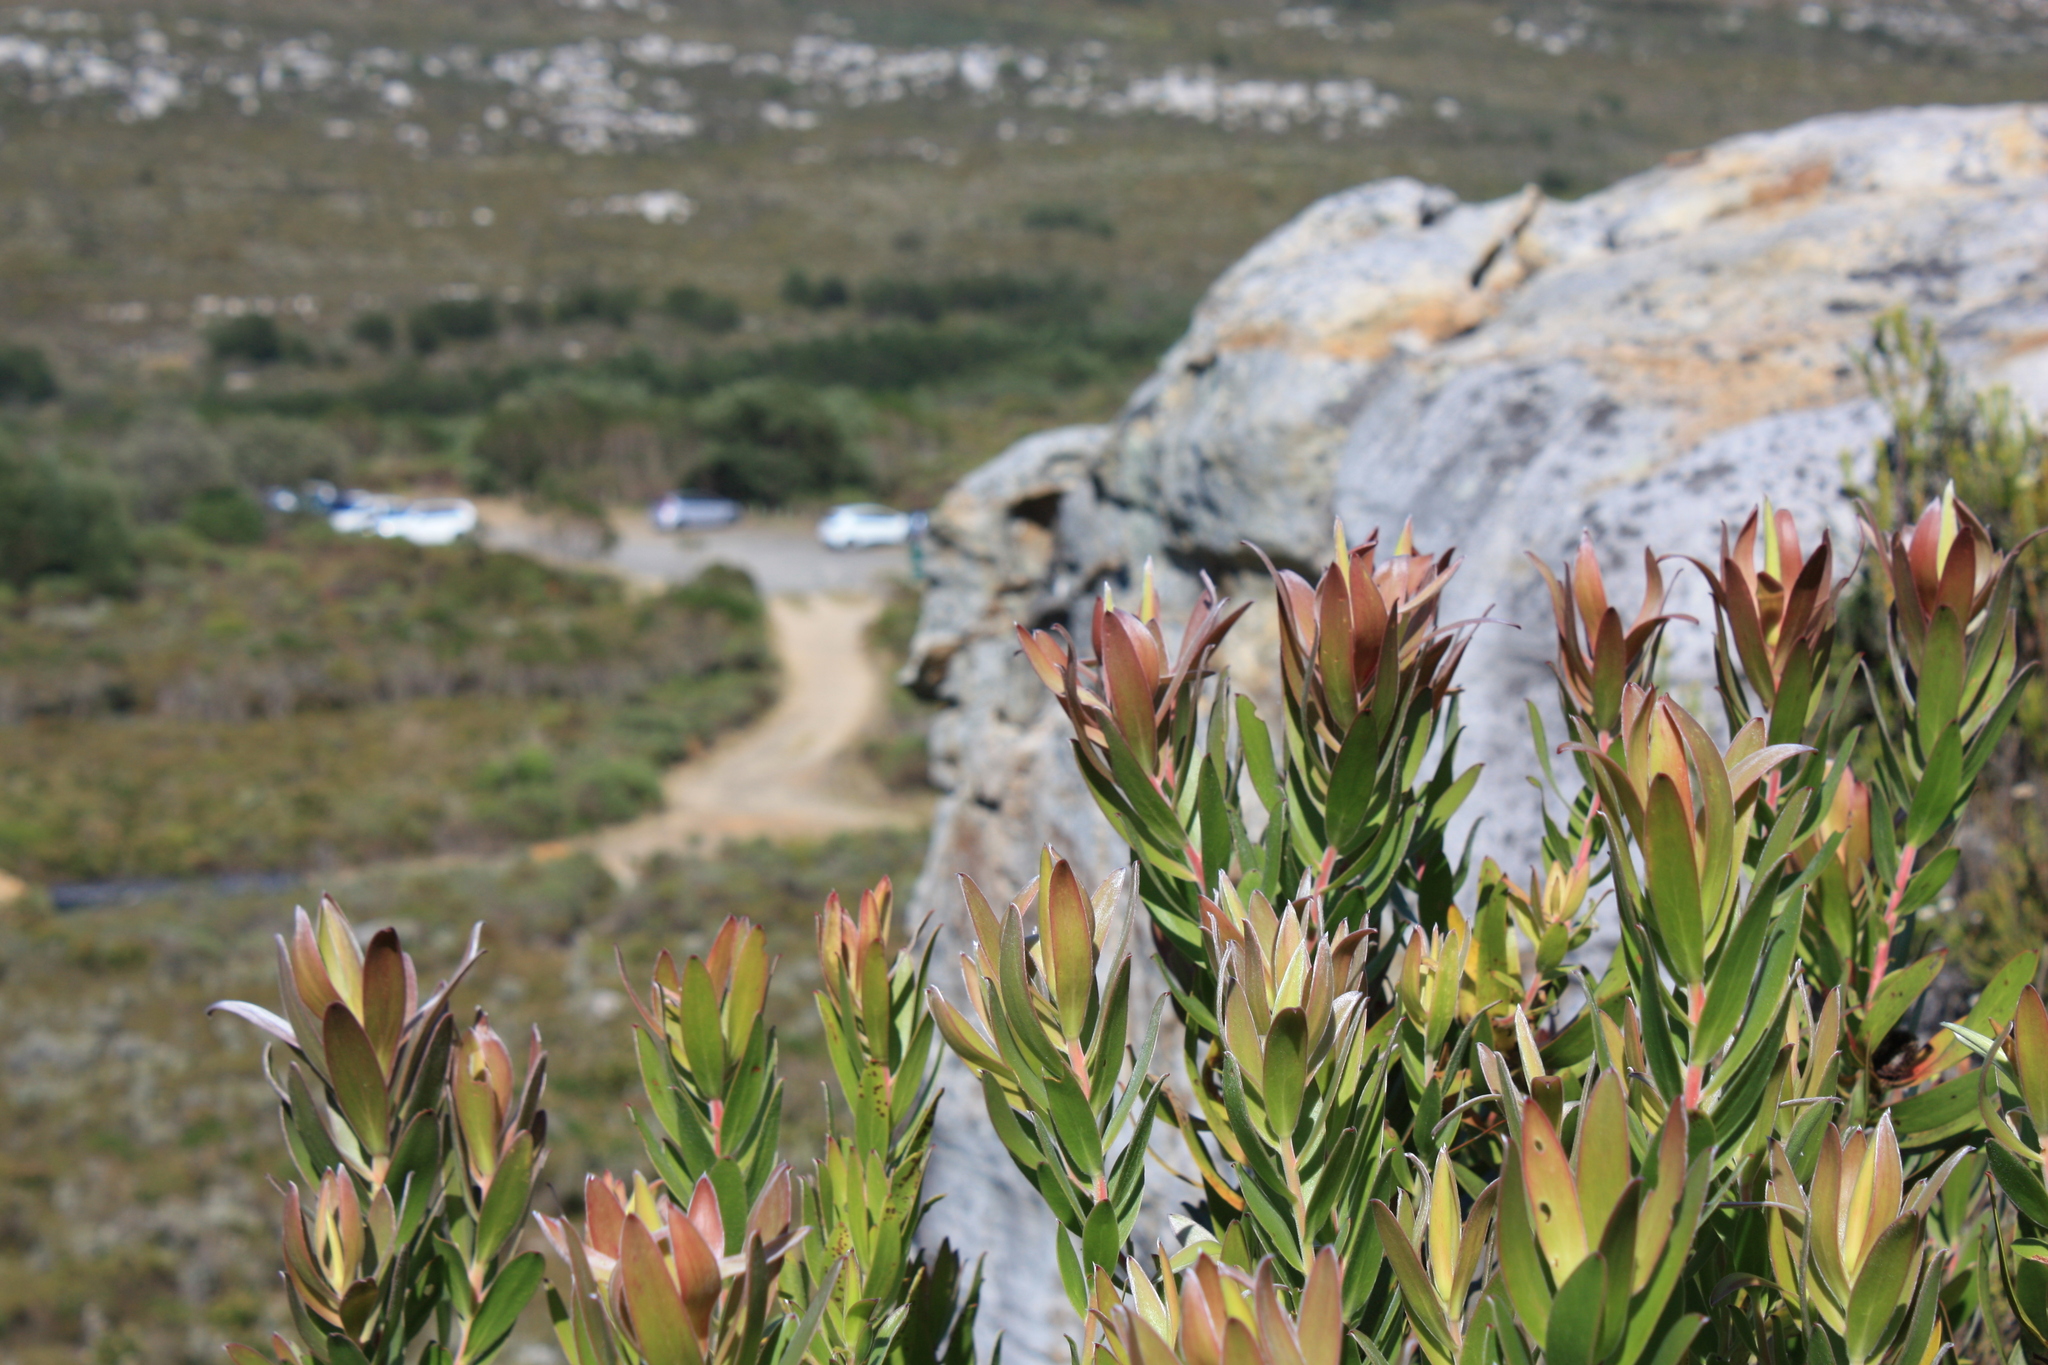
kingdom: Plantae
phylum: Tracheophyta
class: Magnoliopsida
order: Proteales
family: Proteaceae
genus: Leucadendron
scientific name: Leucadendron laureolum
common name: Golden sunshinebush
